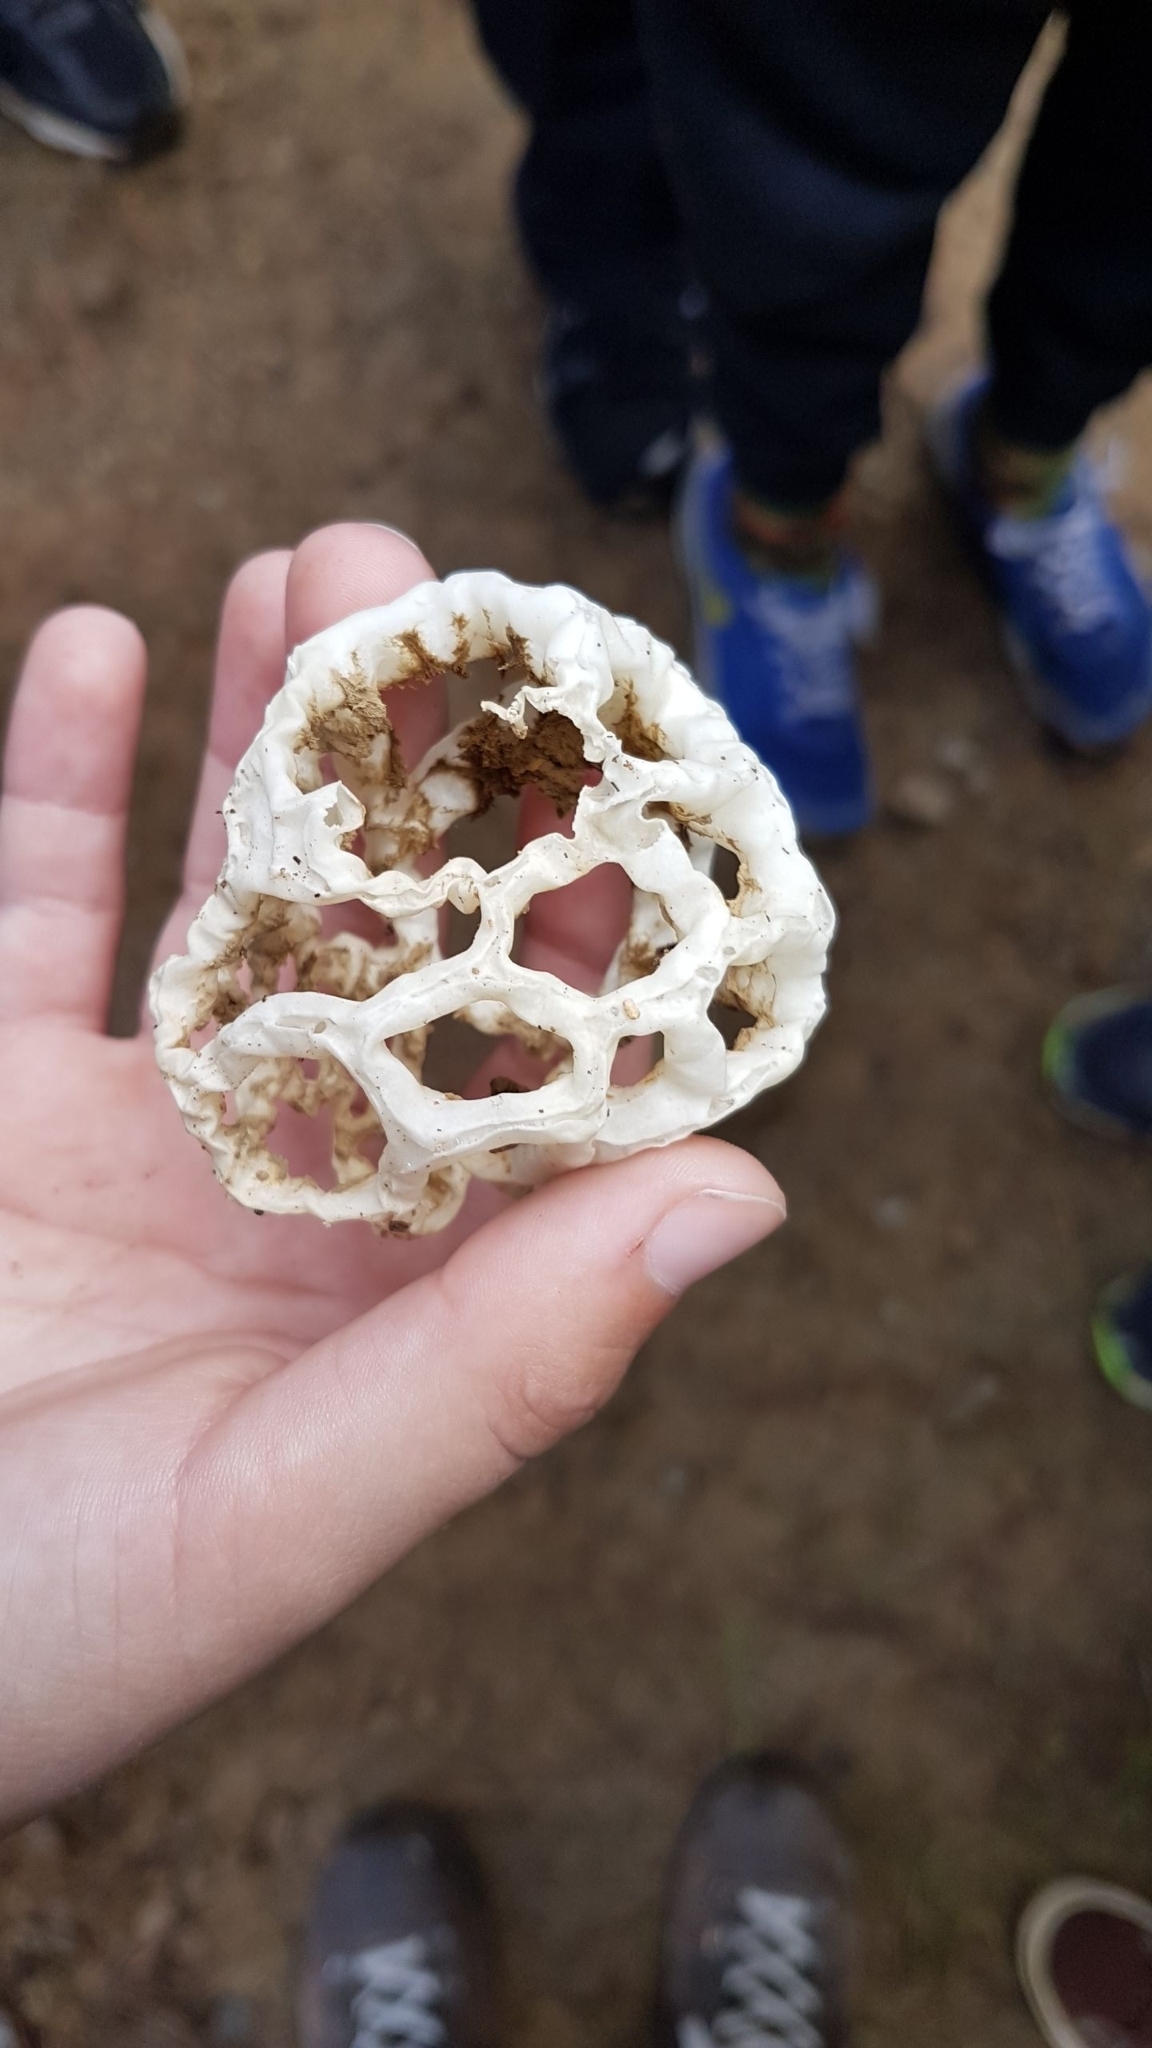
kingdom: Fungi
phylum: Basidiomycota
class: Agaricomycetes
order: Phallales
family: Phallaceae
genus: Ileodictyon
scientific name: Ileodictyon cibarium
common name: Basket fungus
